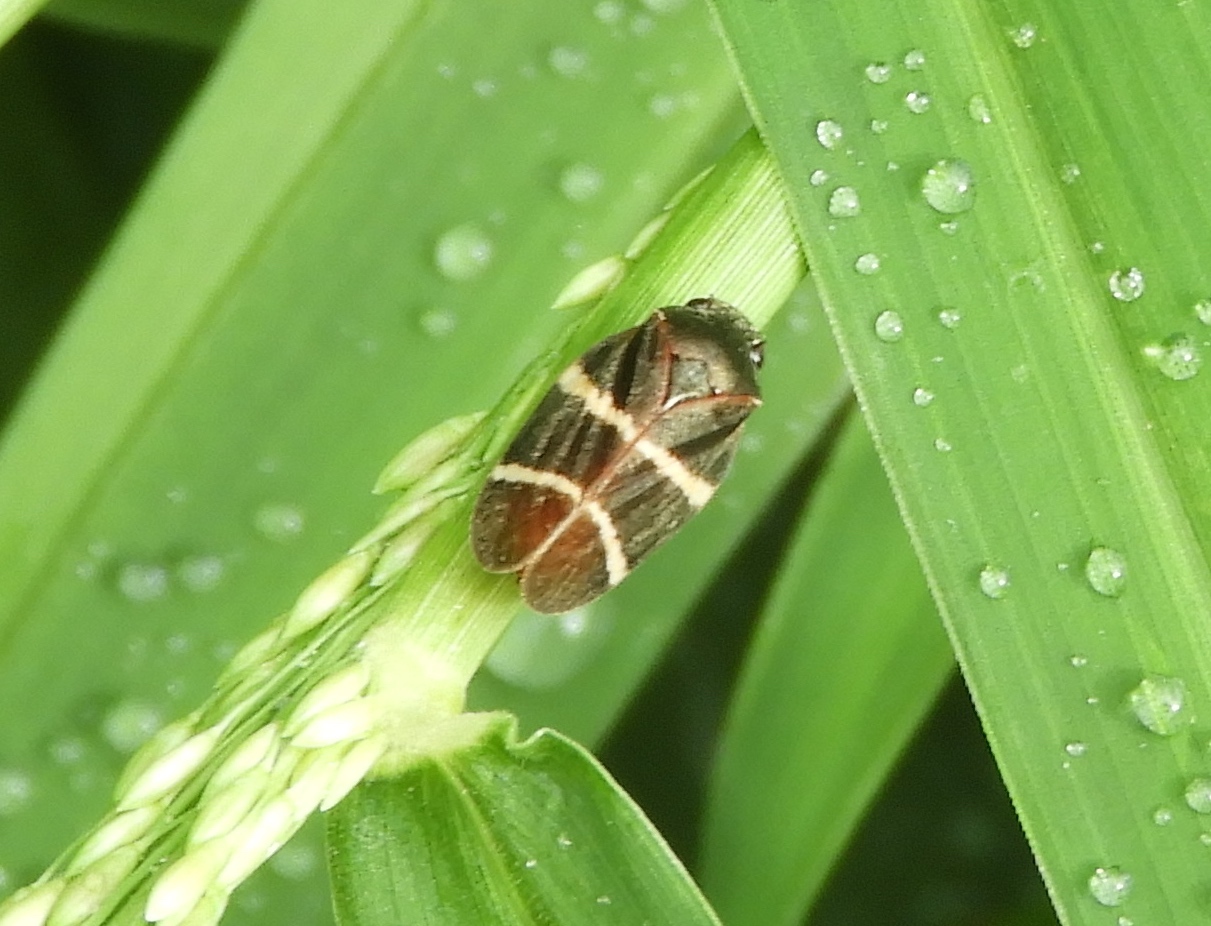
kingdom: Animalia
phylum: Arthropoda
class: Insecta
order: Hemiptera
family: Cercopidae
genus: Aeneolamia
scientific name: Aeneolamia albofasciata
